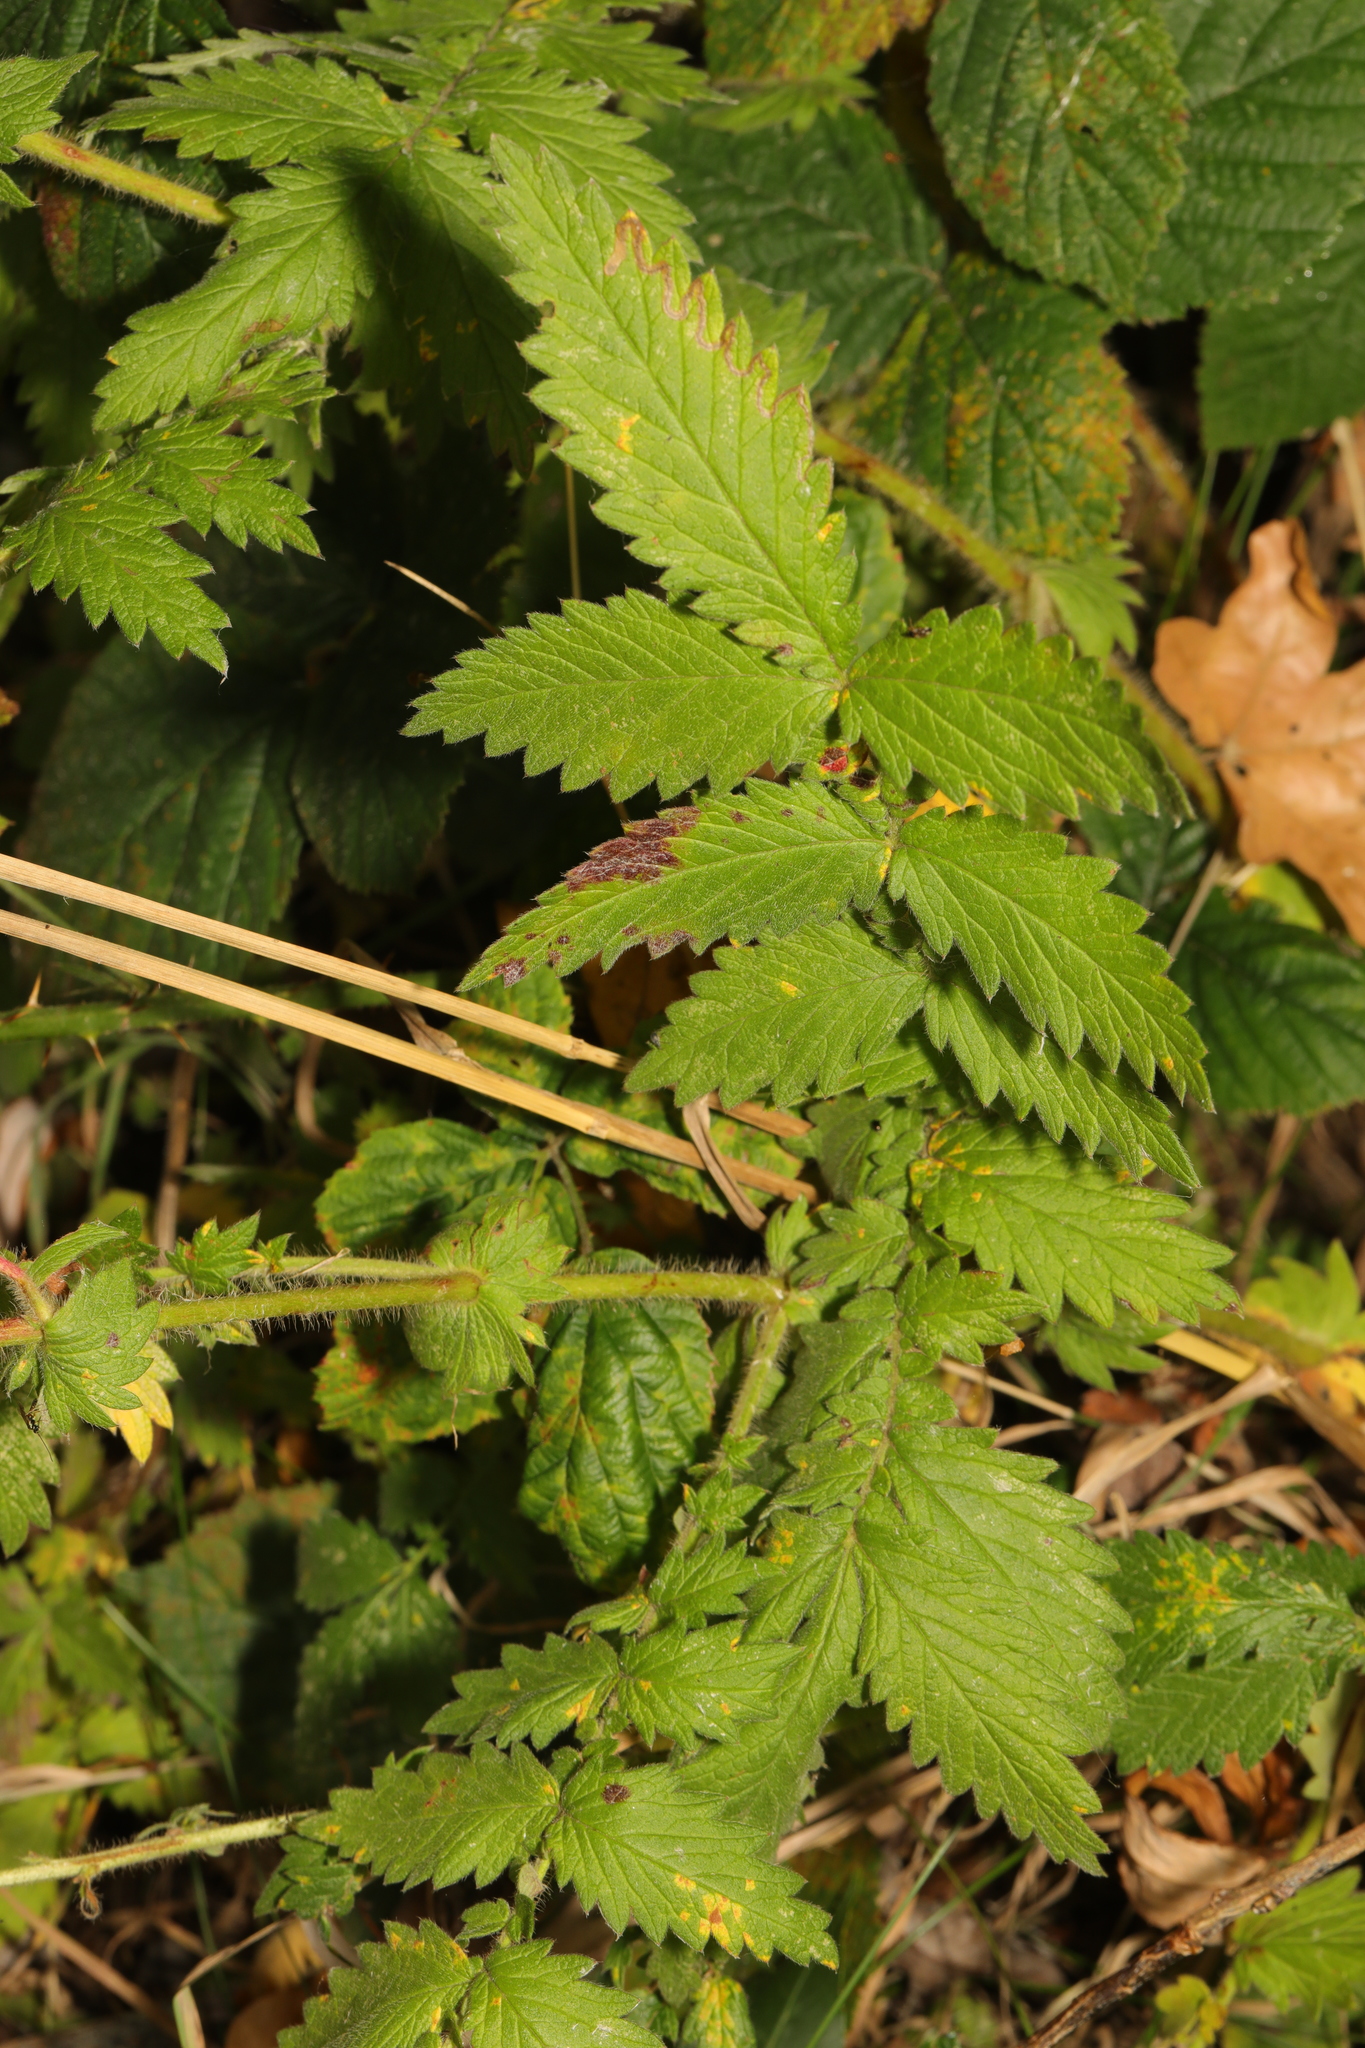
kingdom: Plantae
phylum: Tracheophyta
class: Magnoliopsida
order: Rosales
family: Rosaceae
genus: Agrimonia
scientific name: Agrimonia eupatoria
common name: Agrimony
